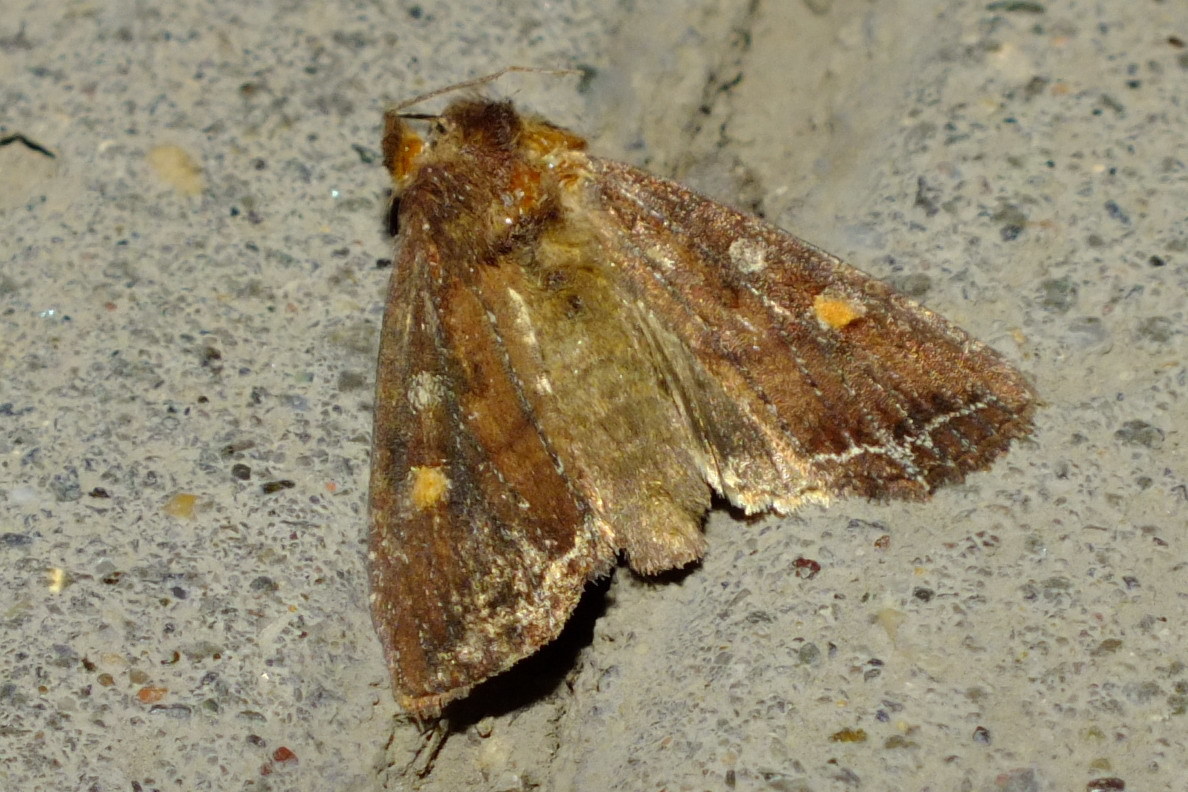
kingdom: Animalia
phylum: Arthropoda
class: Insecta
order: Lepidoptera
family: Noctuidae
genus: Lacanobia
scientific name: Lacanobia oleracea
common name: Bright-line brown-eye
